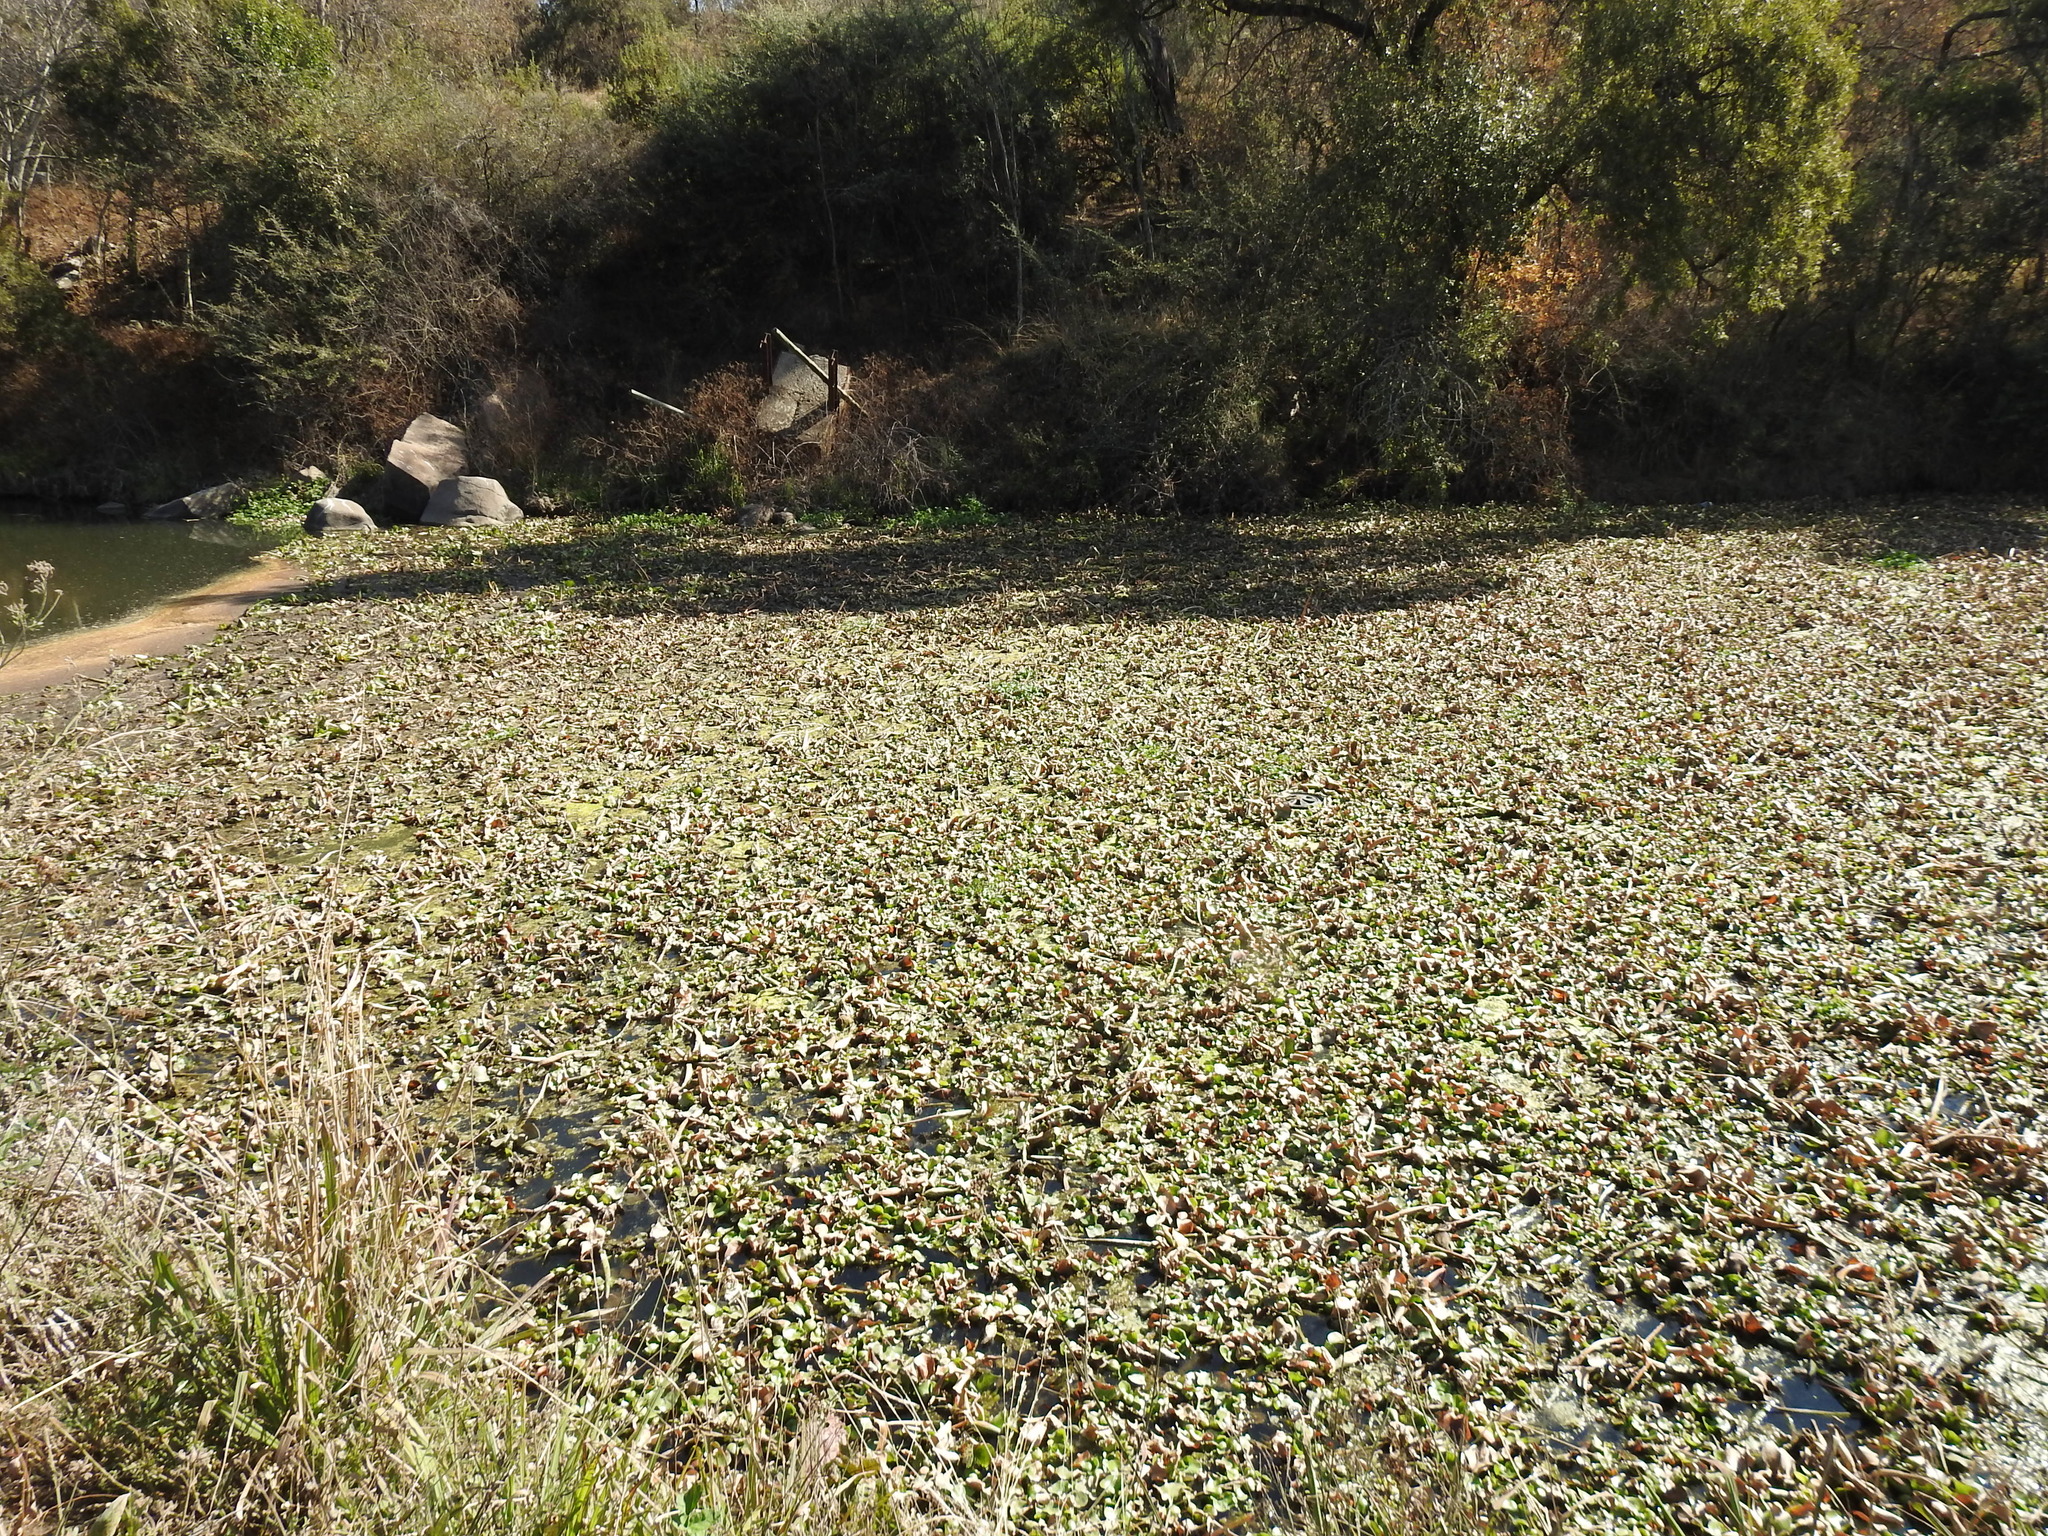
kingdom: Plantae
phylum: Tracheophyta
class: Liliopsida
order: Commelinales
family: Pontederiaceae
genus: Pontederia
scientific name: Pontederia crassipes
